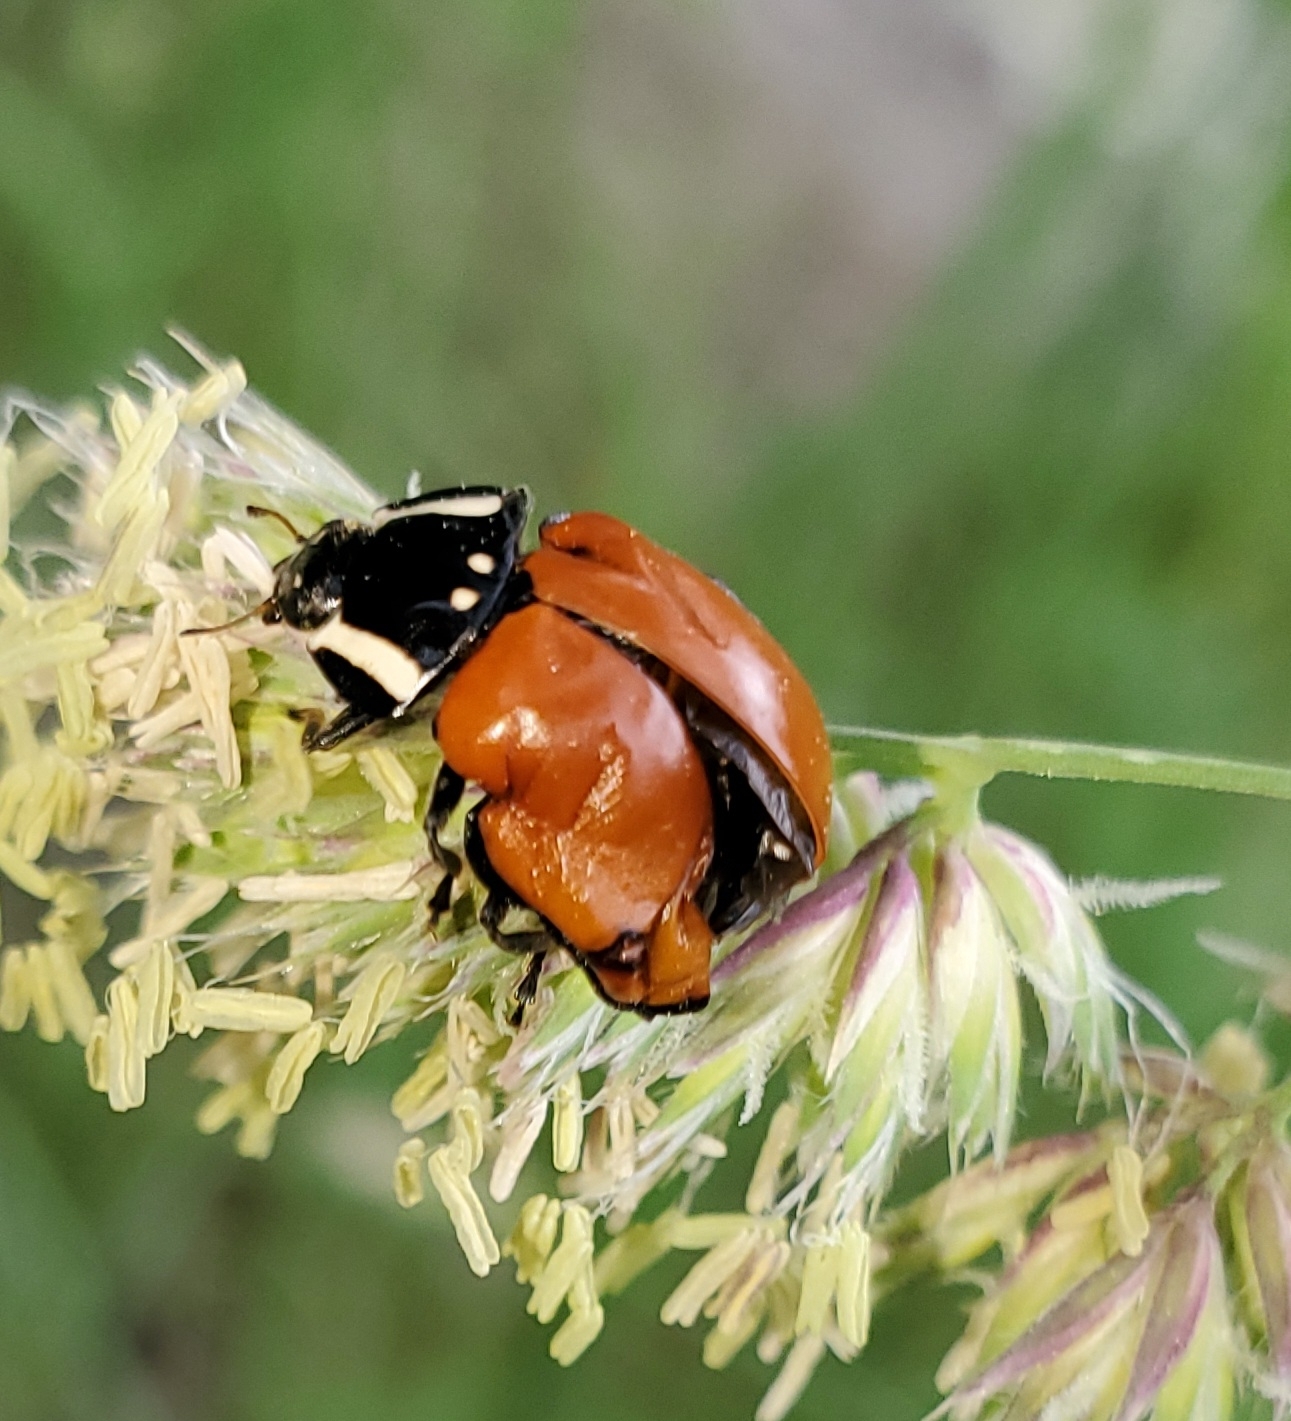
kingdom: Animalia
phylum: Arthropoda
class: Insecta
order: Coleoptera
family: Coccinellidae
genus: Anatis
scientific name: Anatis lecontei
